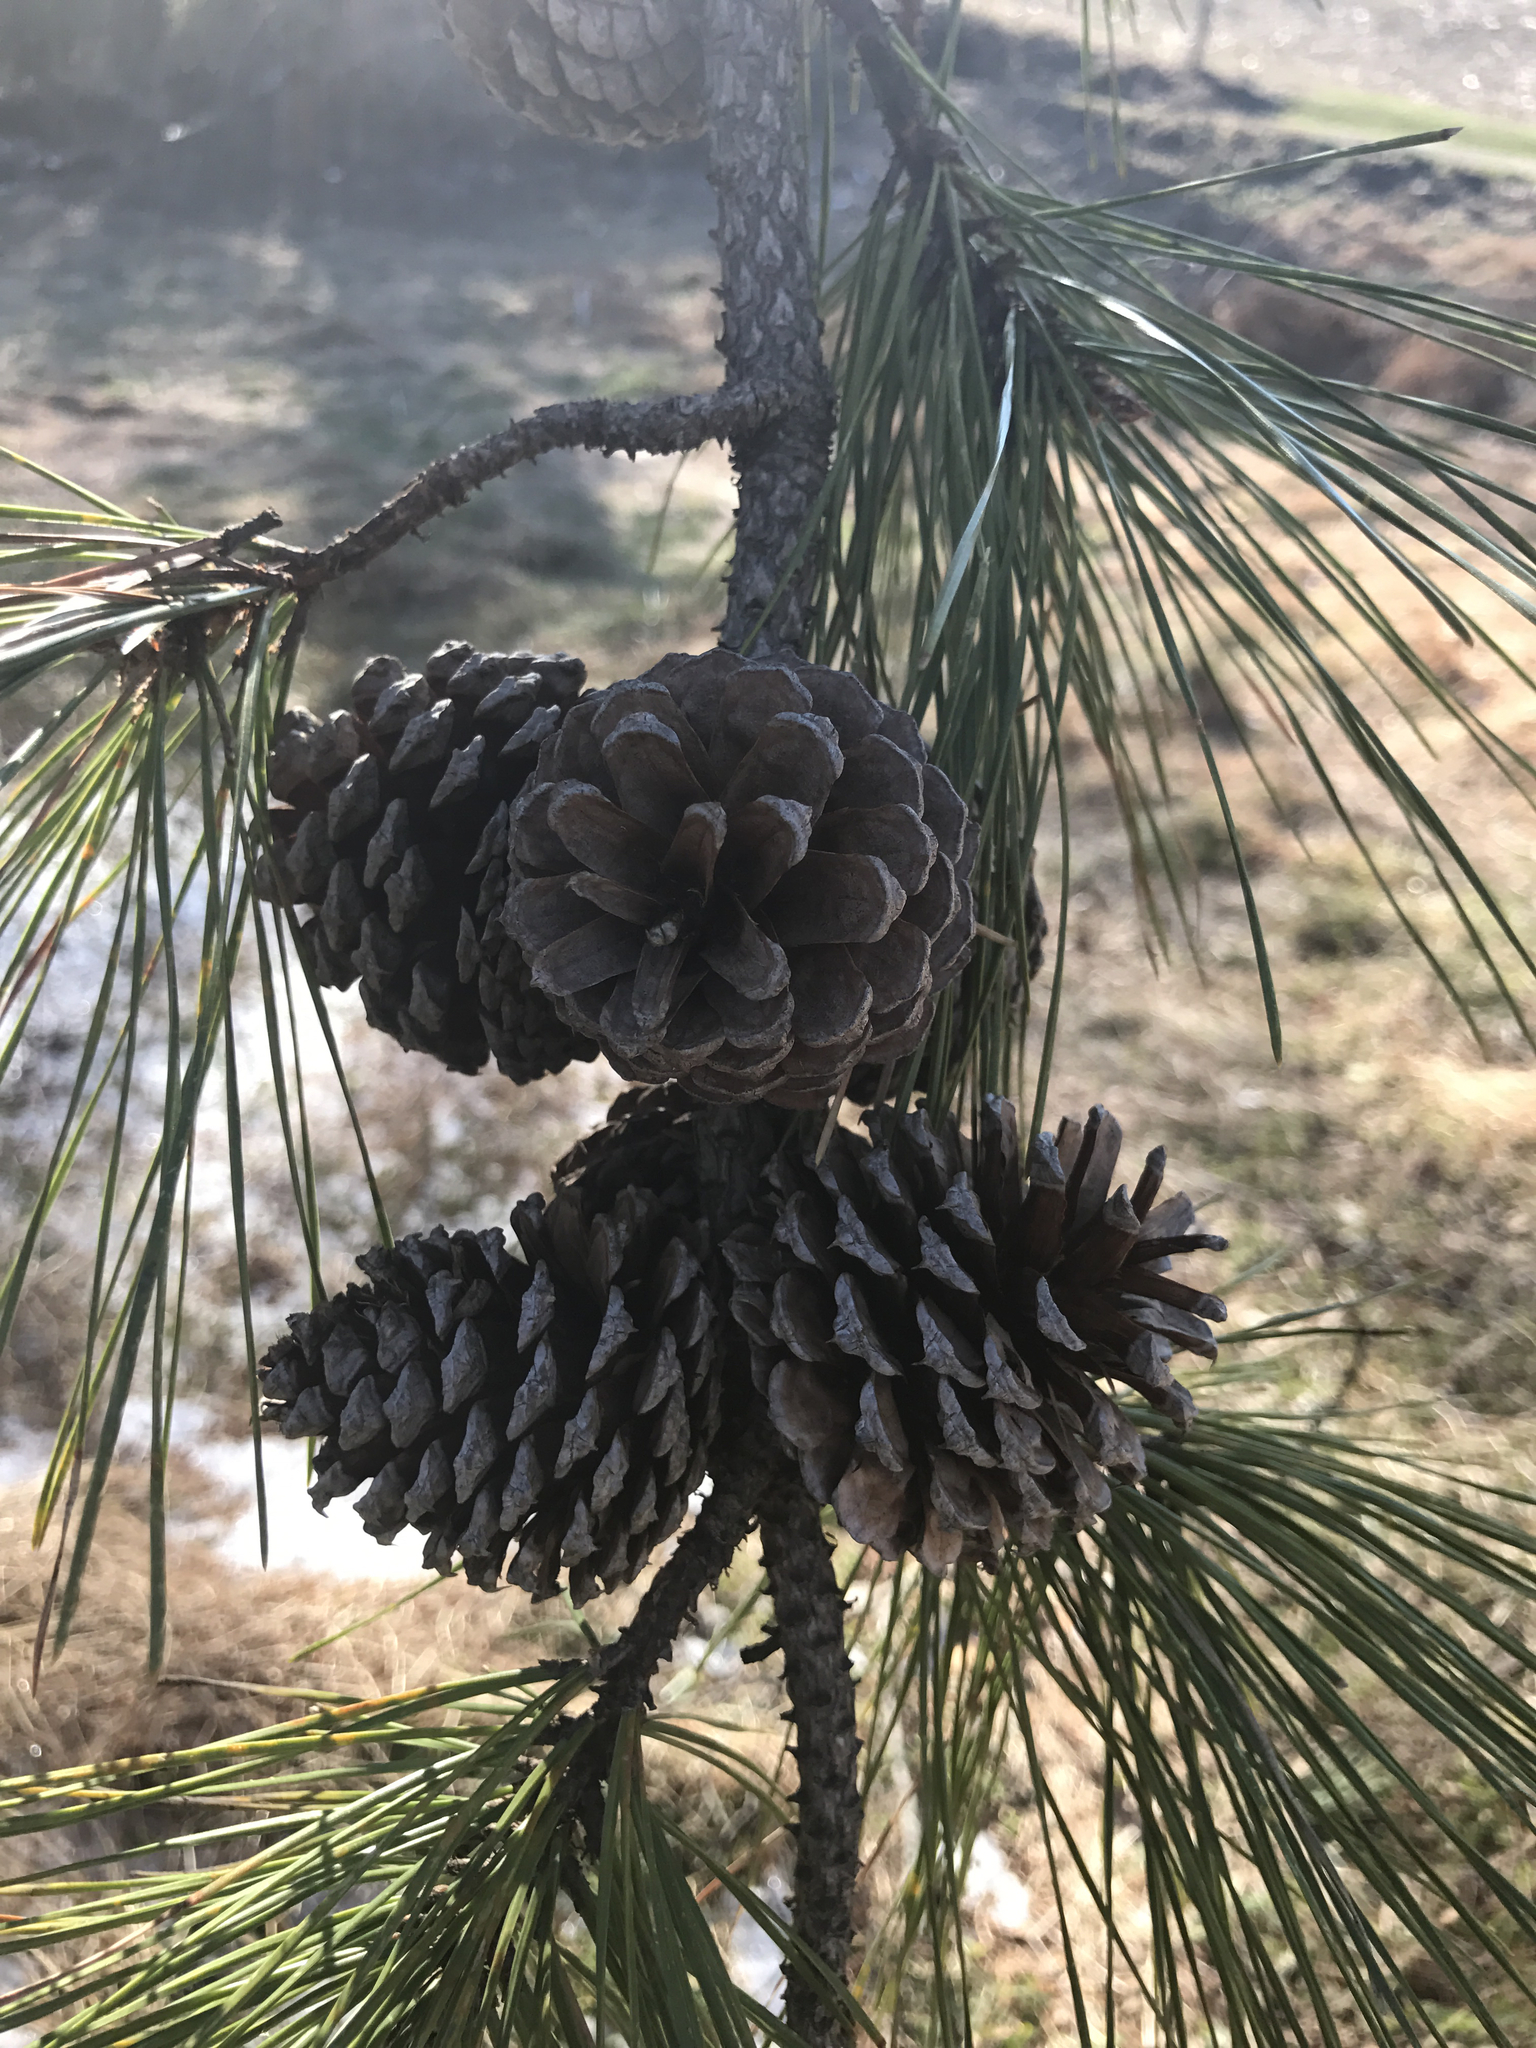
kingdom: Plantae
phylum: Tracheophyta
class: Pinopsida
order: Pinales
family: Pinaceae
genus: Pinus
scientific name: Pinus rigida
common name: Pitch pine
